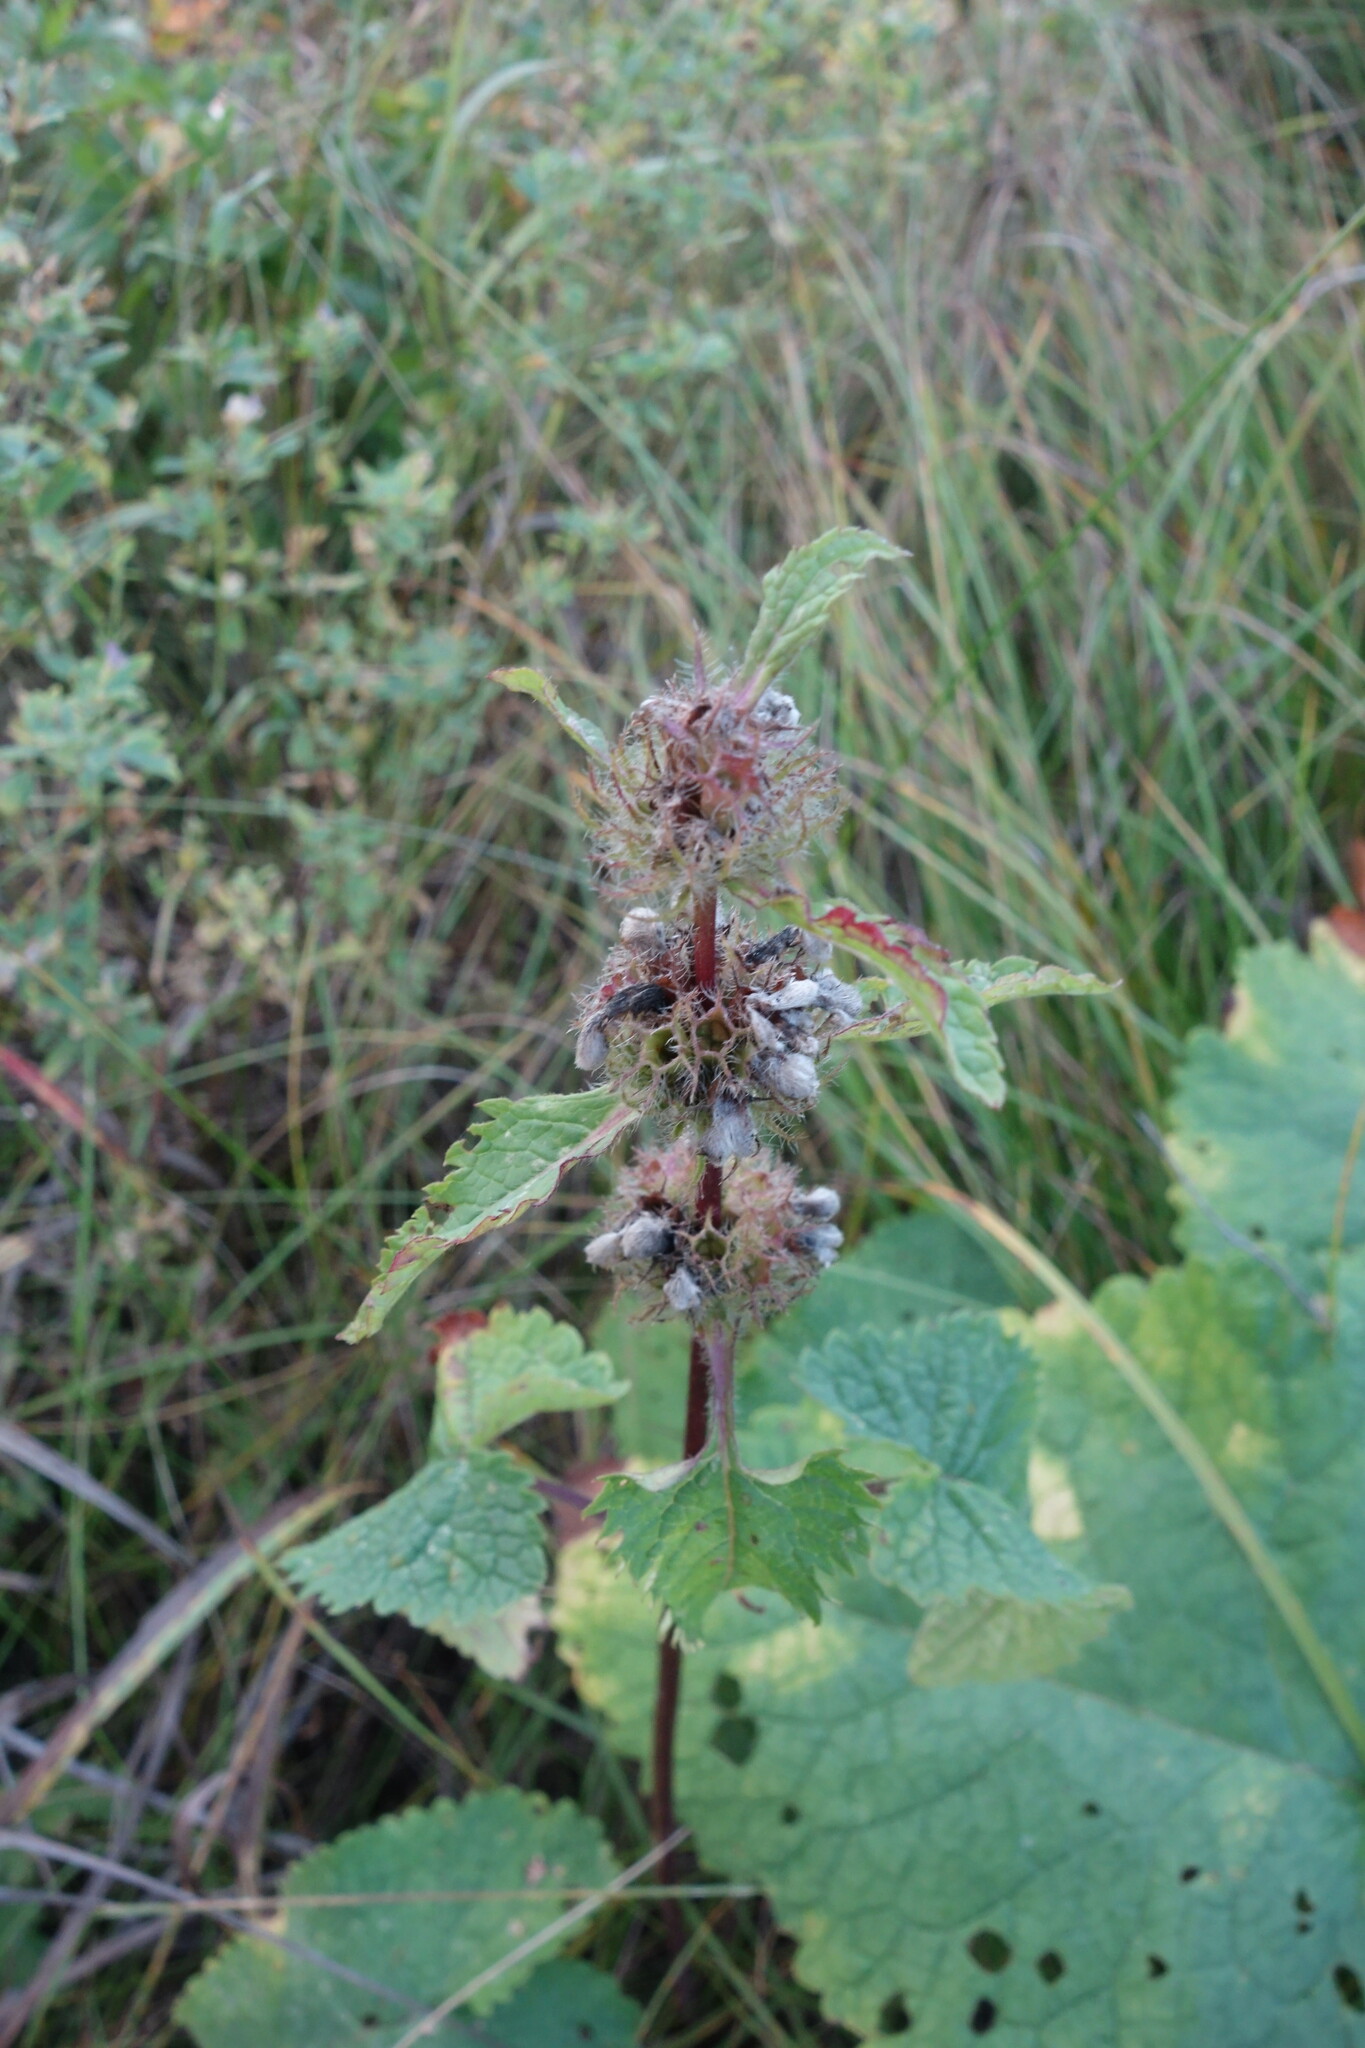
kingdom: Plantae
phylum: Tracheophyta
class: Magnoliopsida
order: Lamiales
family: Lamiaceae
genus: Phlomoides
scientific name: Phlomoides tuberosa
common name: Tuberous jerusalem sage
